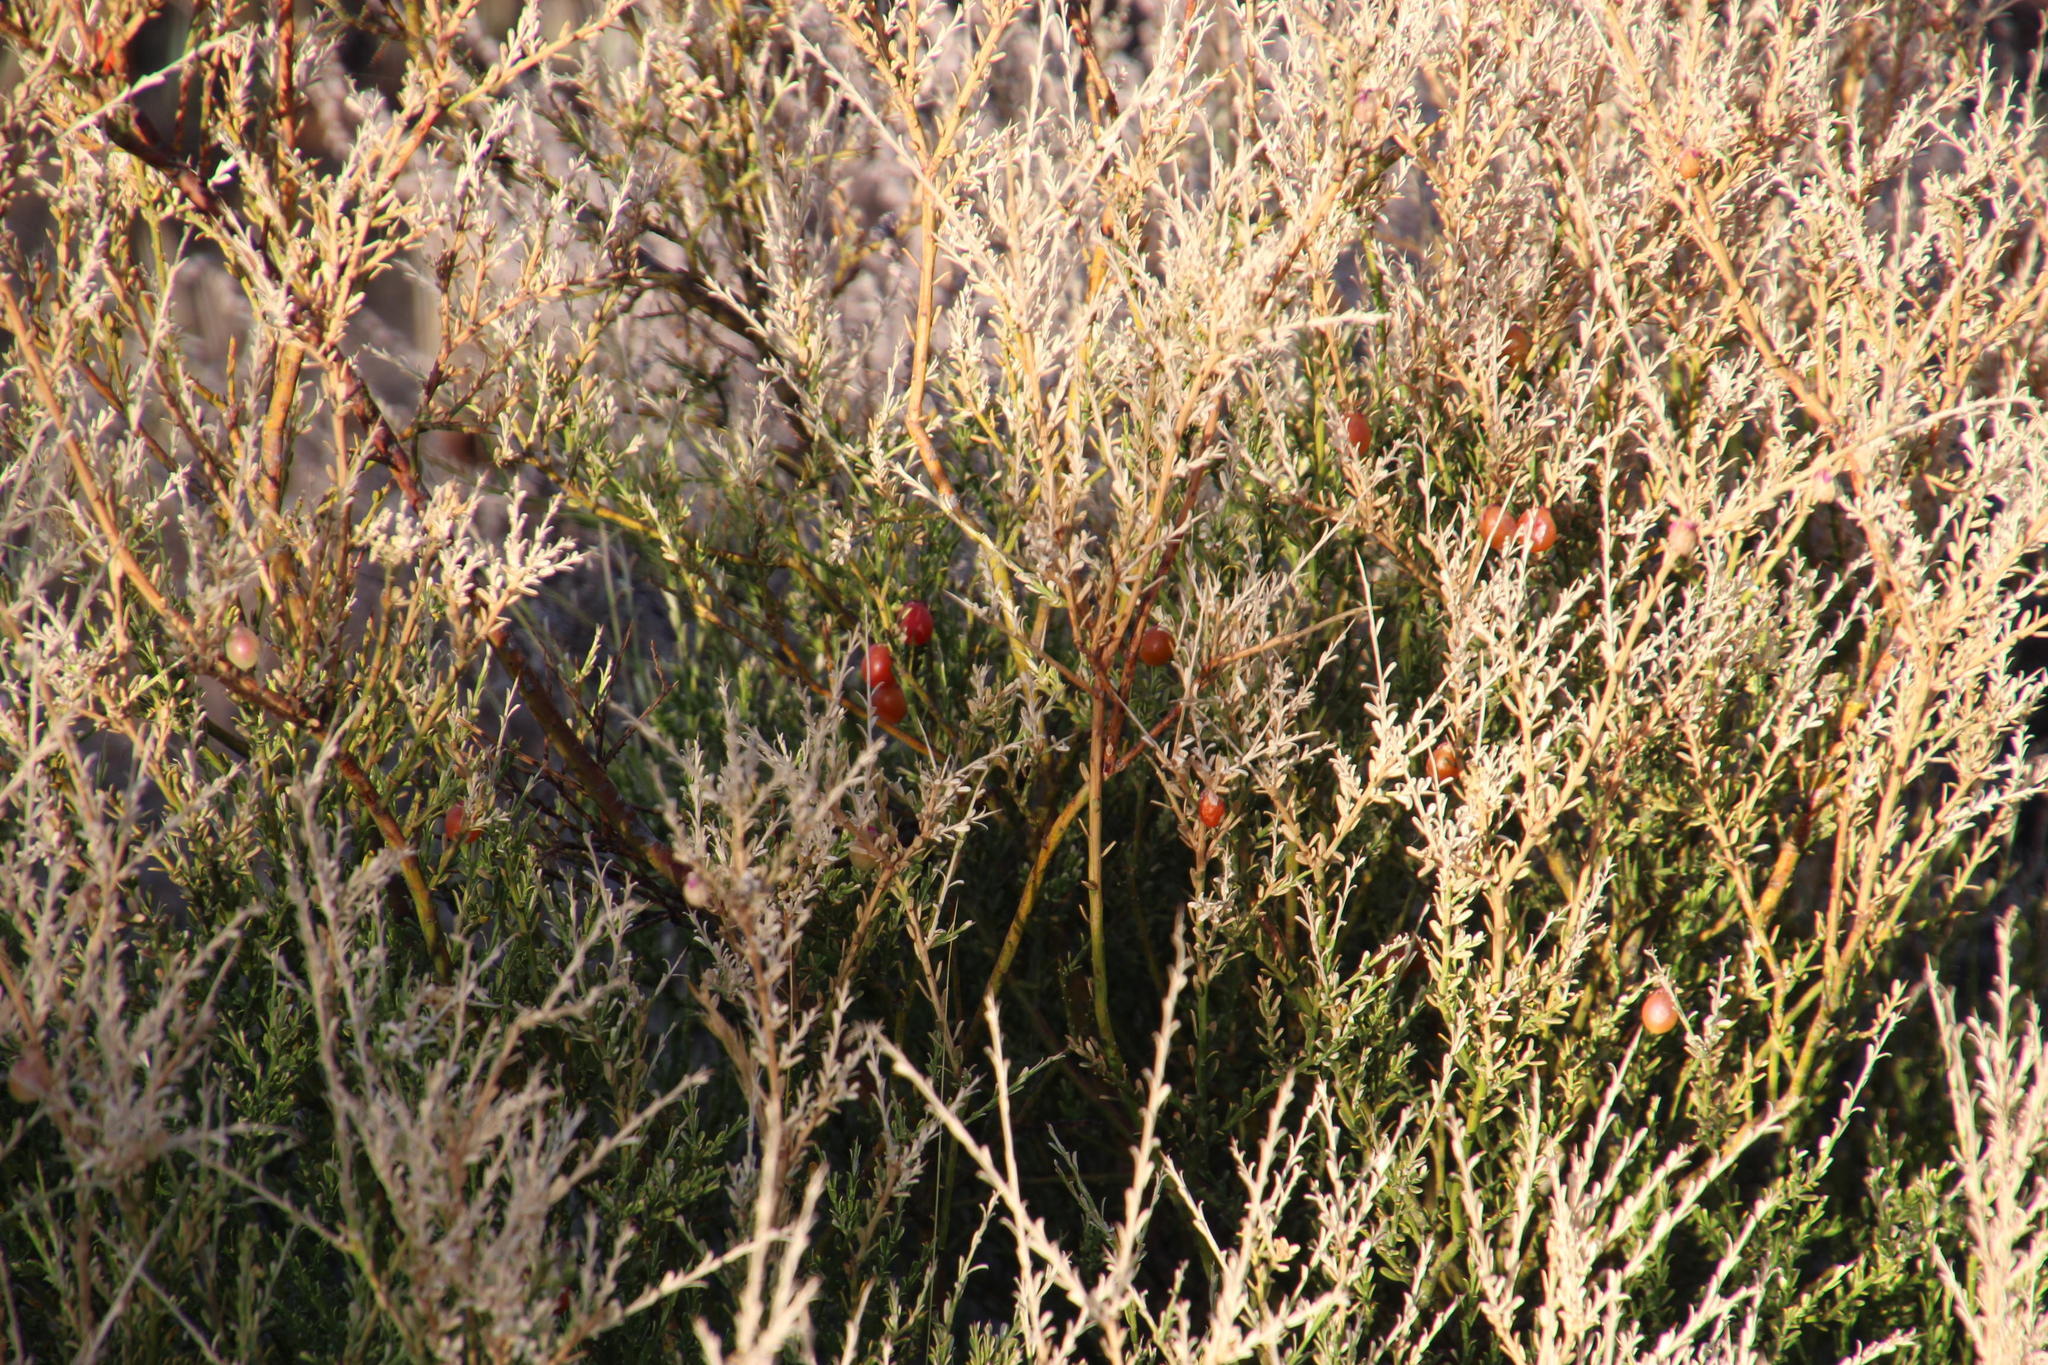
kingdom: Plantae
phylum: Tracheophyta
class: Magnoliopsida
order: Fabales
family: Polygalaceae
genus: Muraltia
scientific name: Muraltia spinosa
